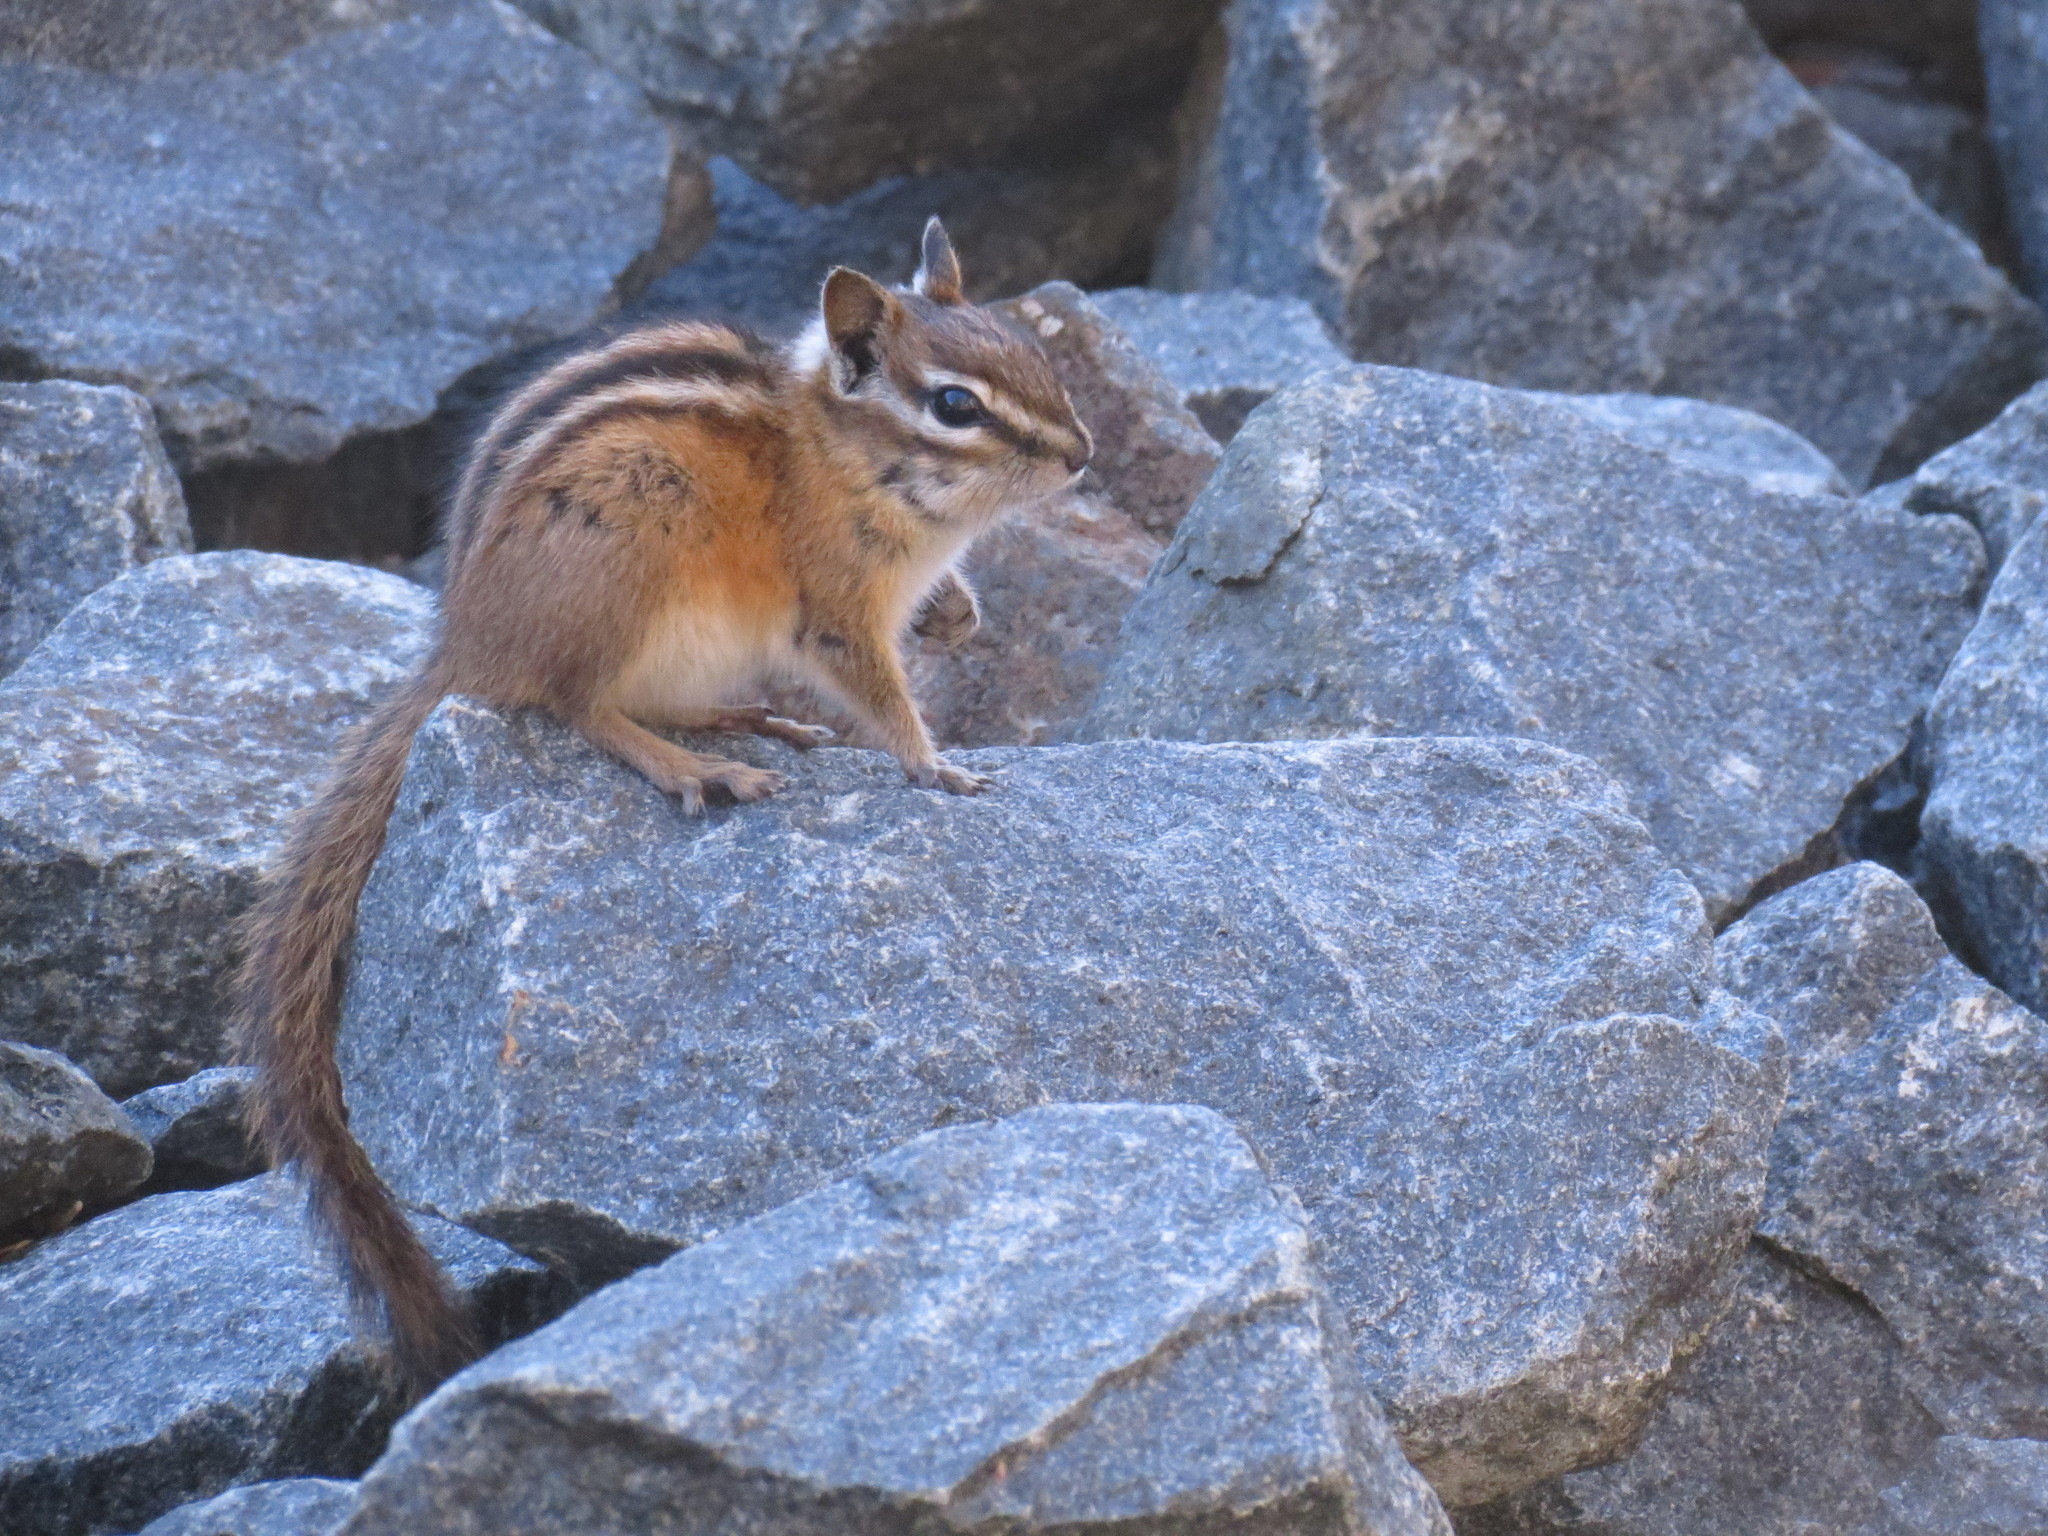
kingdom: Animalia
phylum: Chordata
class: Mammalia
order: Rodentia
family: Sciuridae
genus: Tamias
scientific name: Tamias minimus
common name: Least chipmunk
